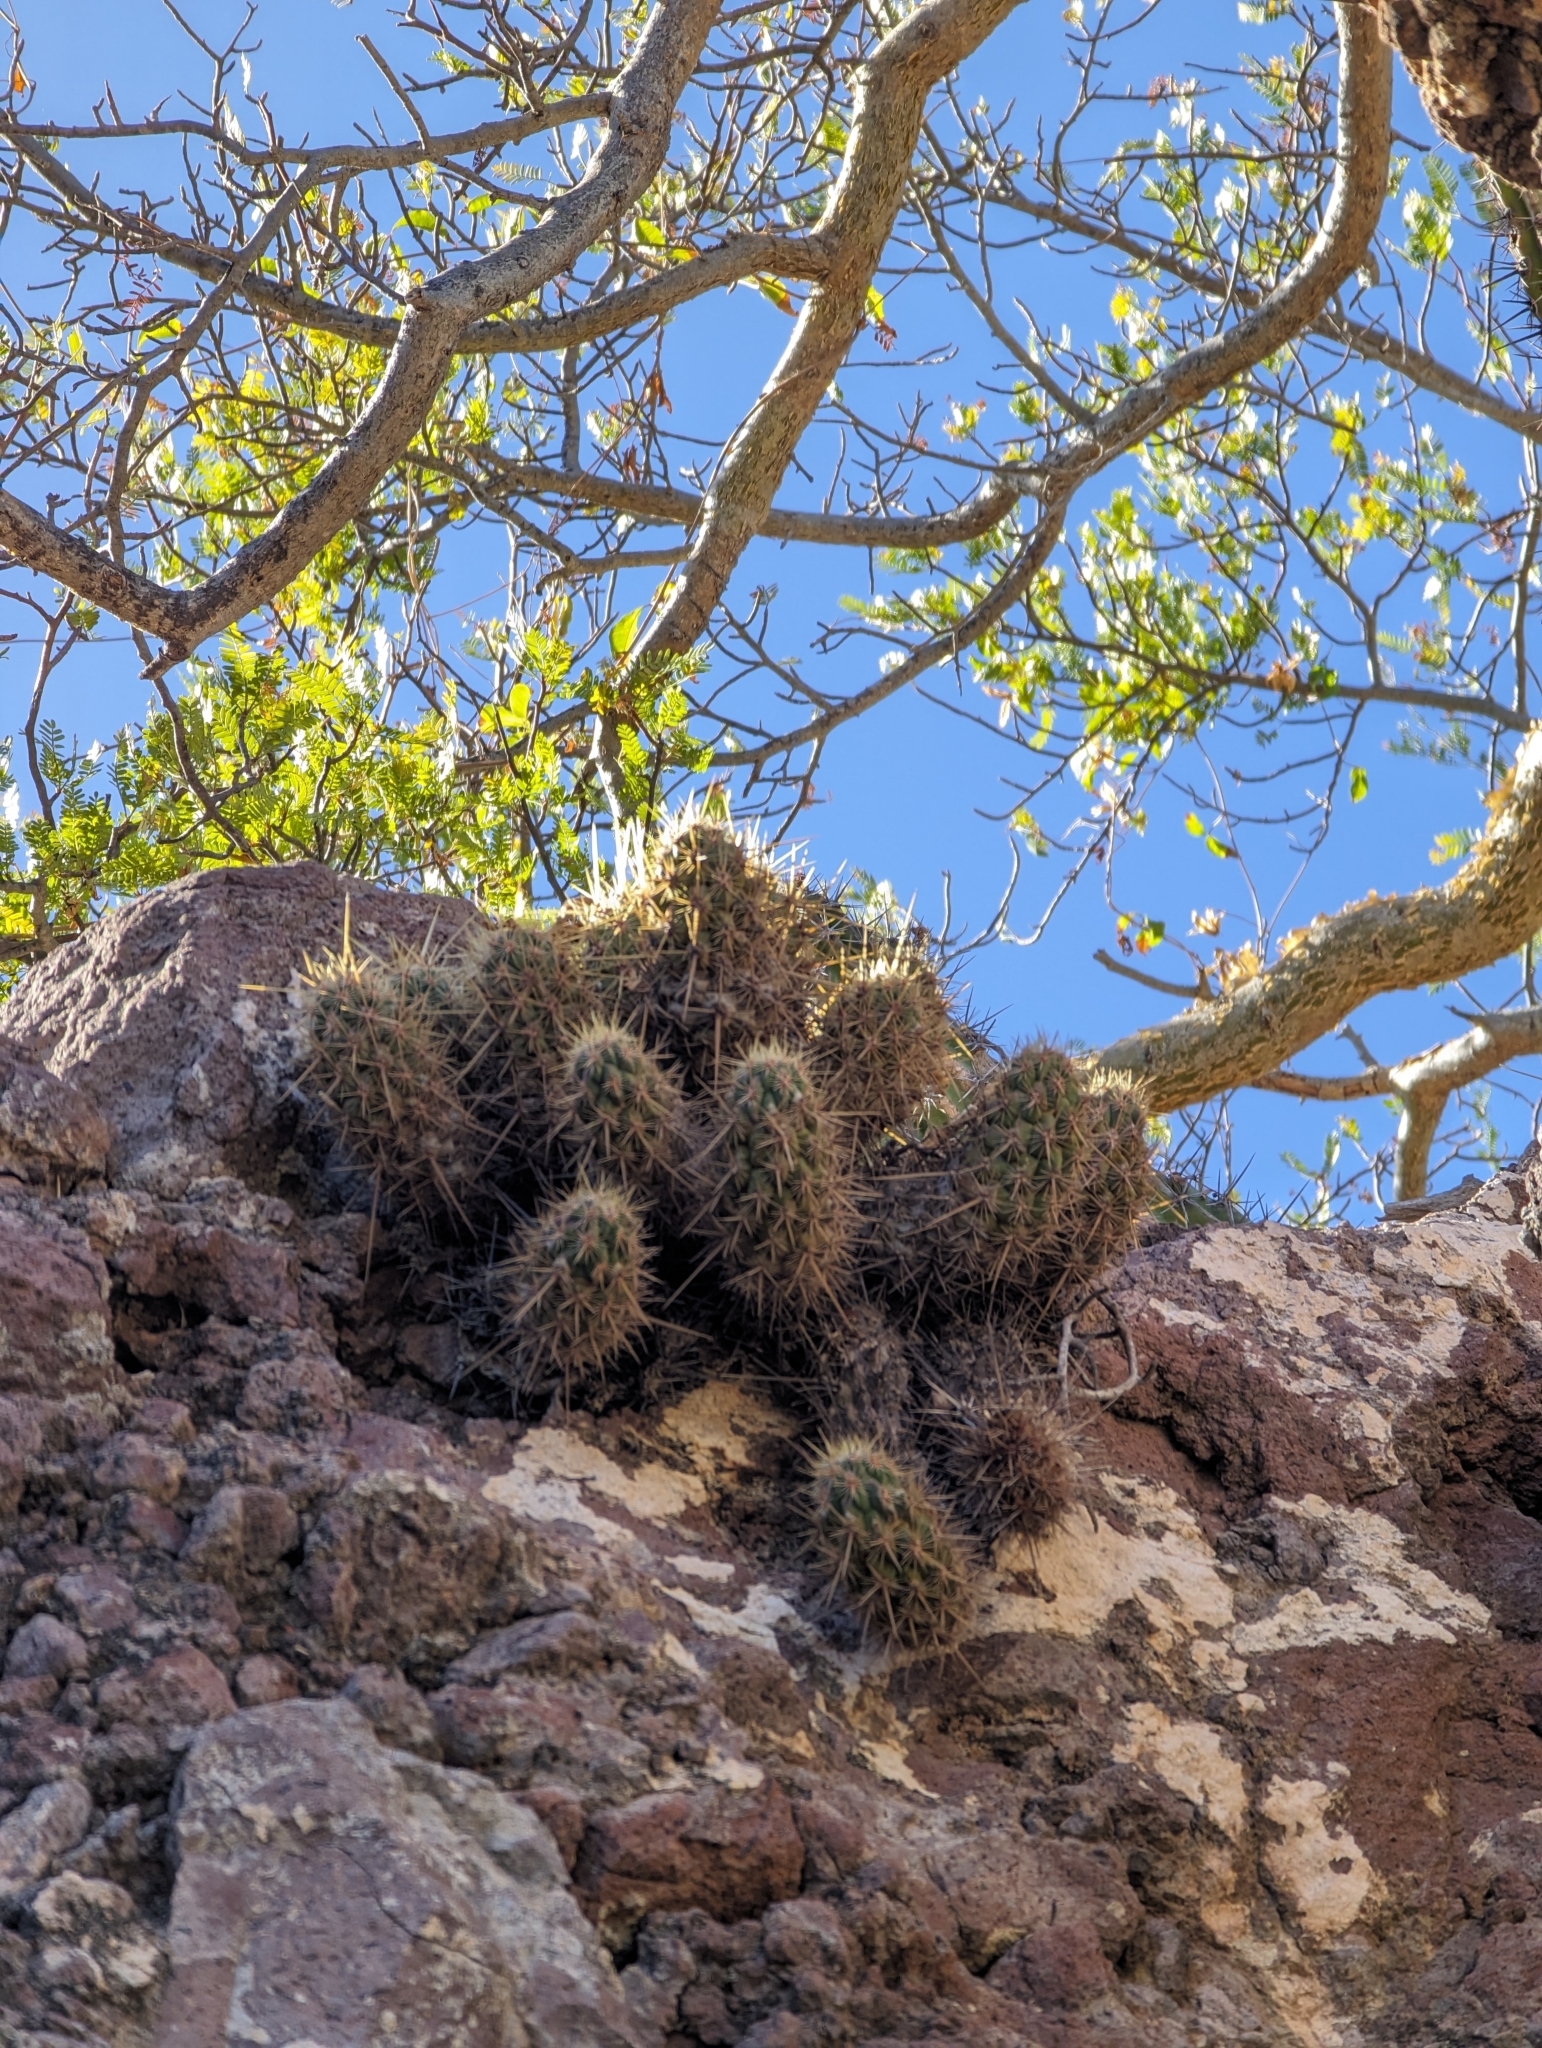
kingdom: Plantae
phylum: Tracheophyta
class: Magnoliopsida
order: Caryophyllales
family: Cactaceae
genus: Echinocereus
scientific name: Echinocereus brandegeei
